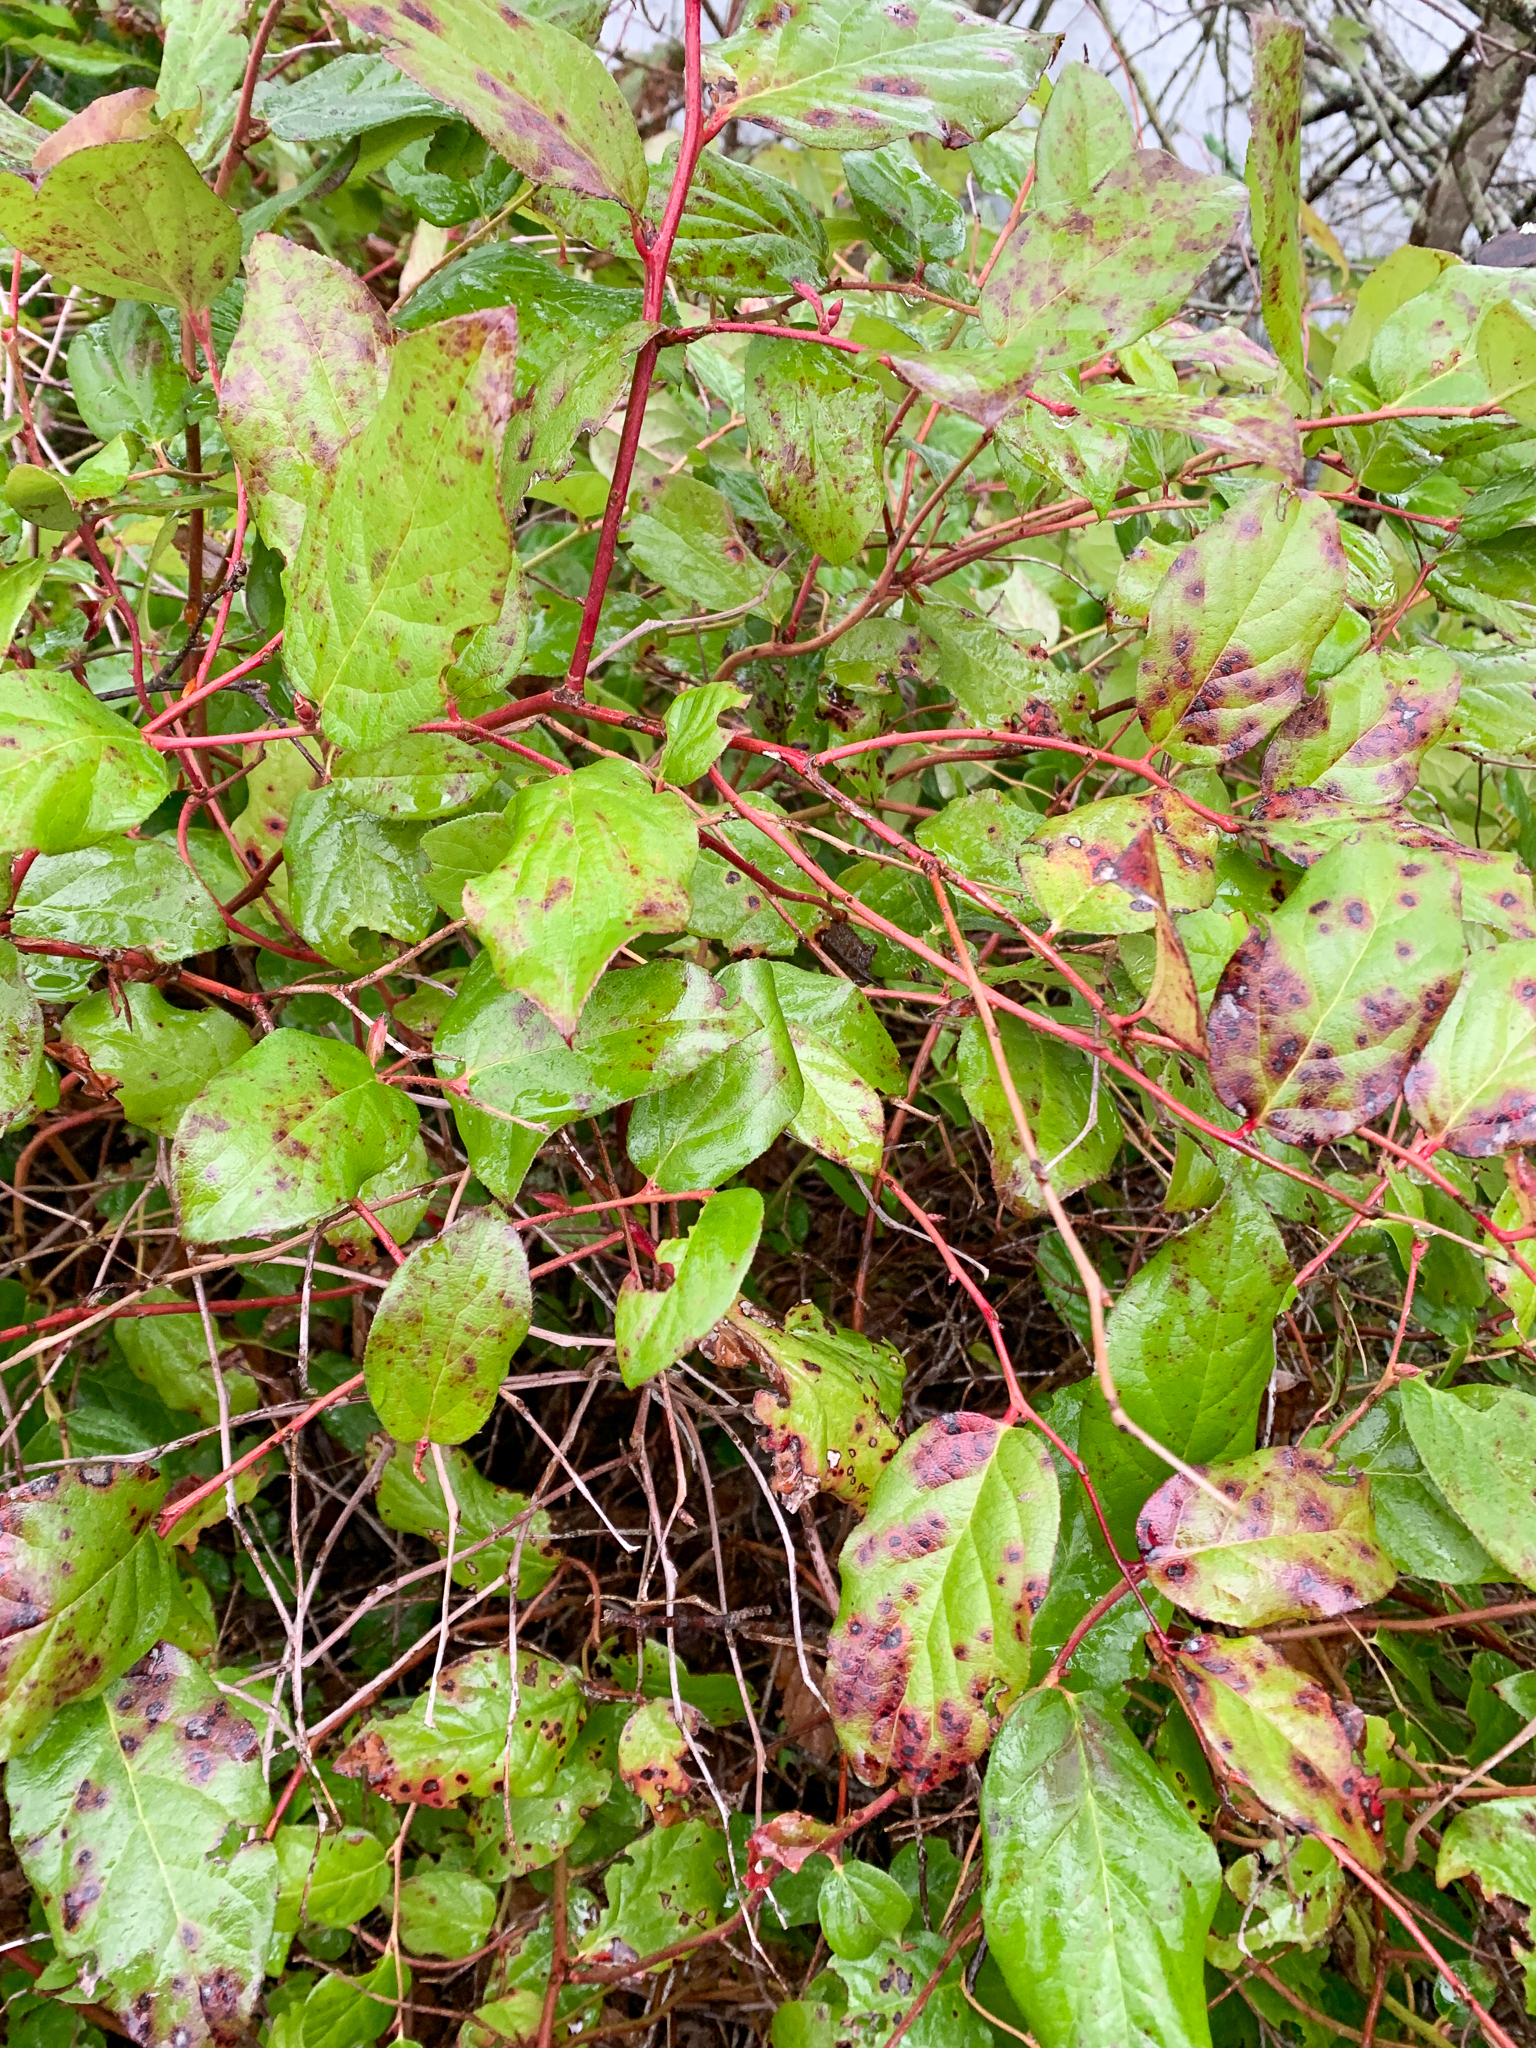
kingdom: Plantae
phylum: Tracheophyta
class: Magnoliopsida
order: Ericales
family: Ericaceae
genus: Gaultheria
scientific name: Gaultheria shallon
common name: Shallon
